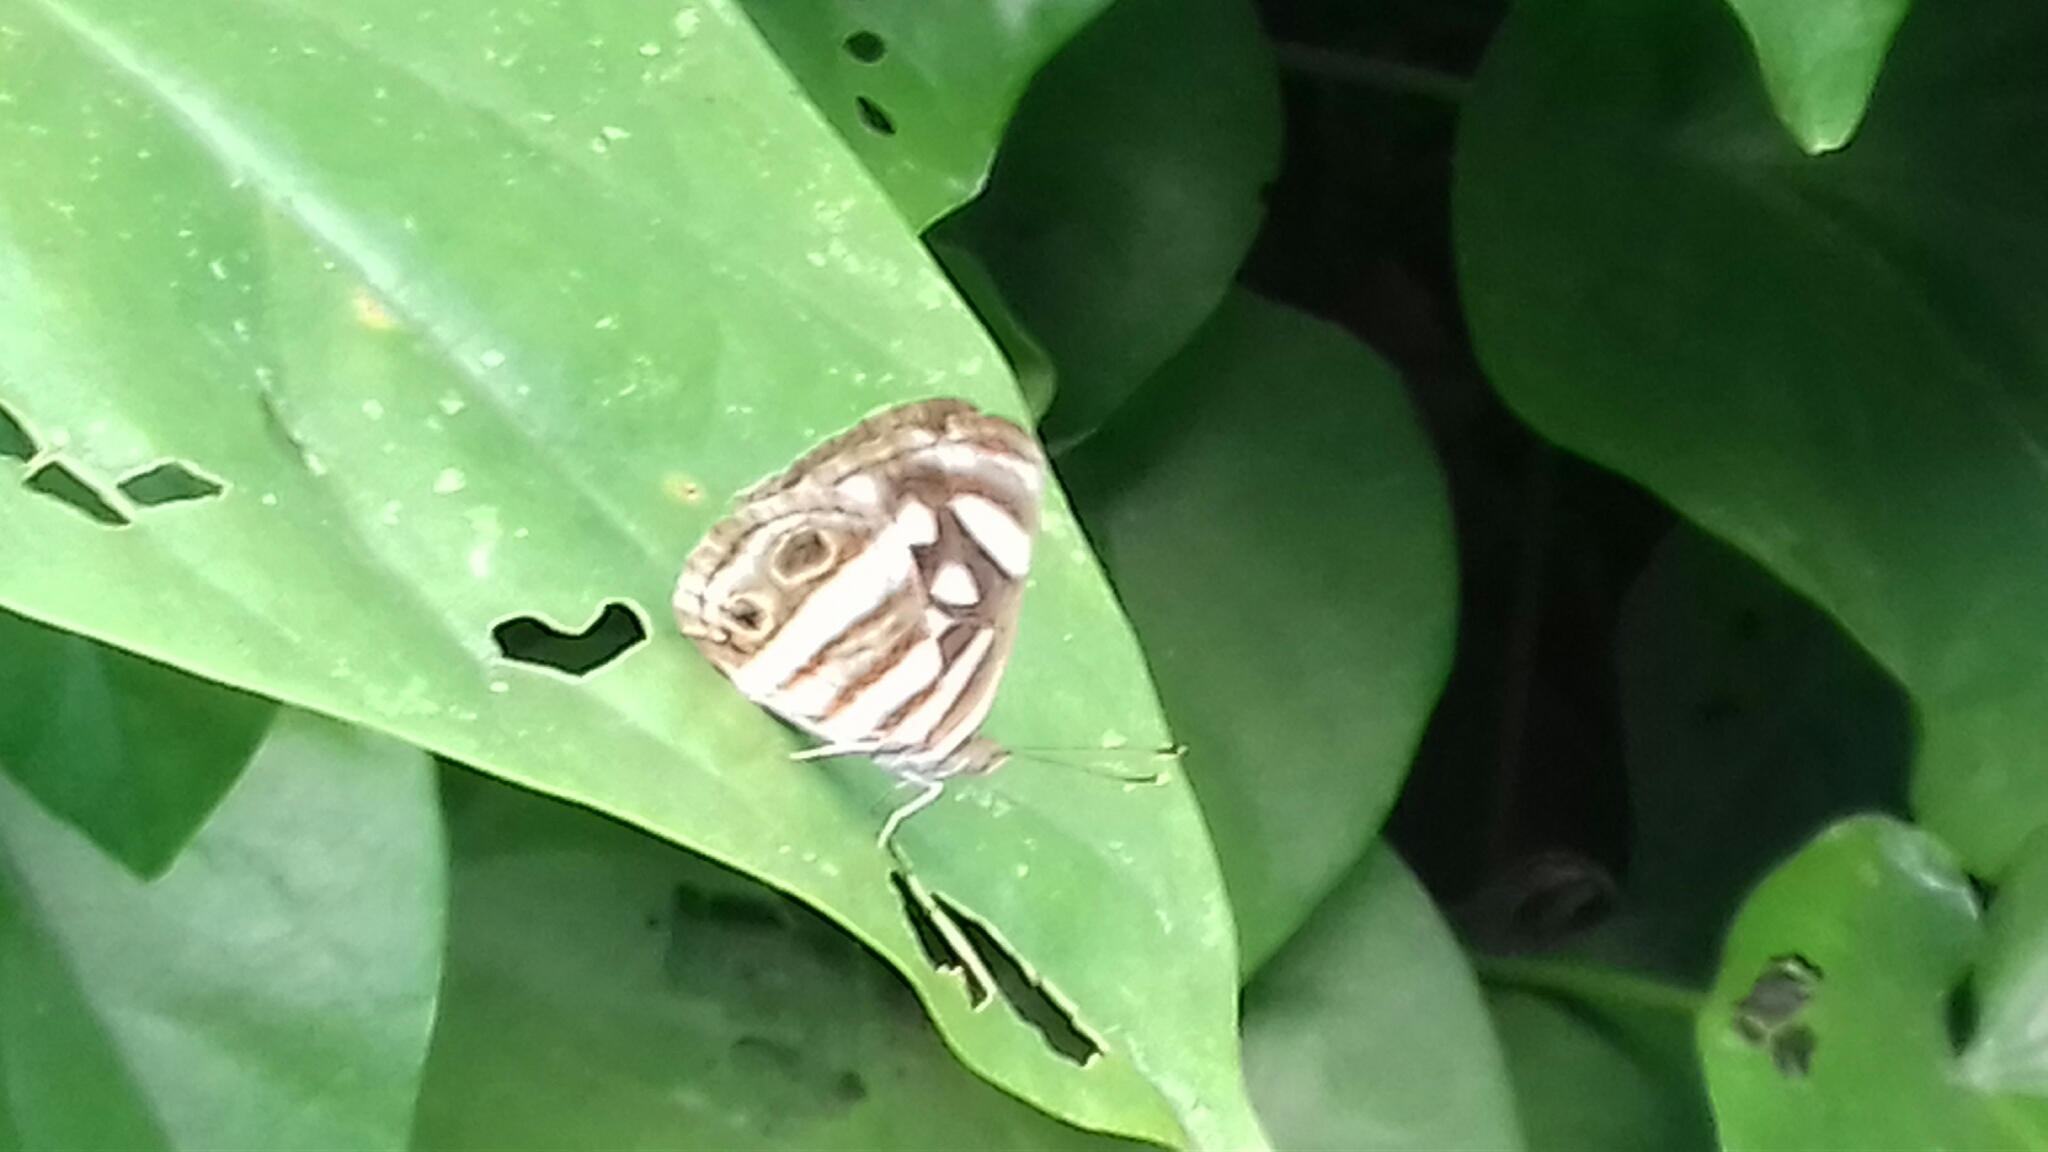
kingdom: Animalia
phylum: Arthropoda
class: Insecta
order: Lepidoptera
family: Nymphalidae
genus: Dynamine
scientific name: Dynamine mylitta
